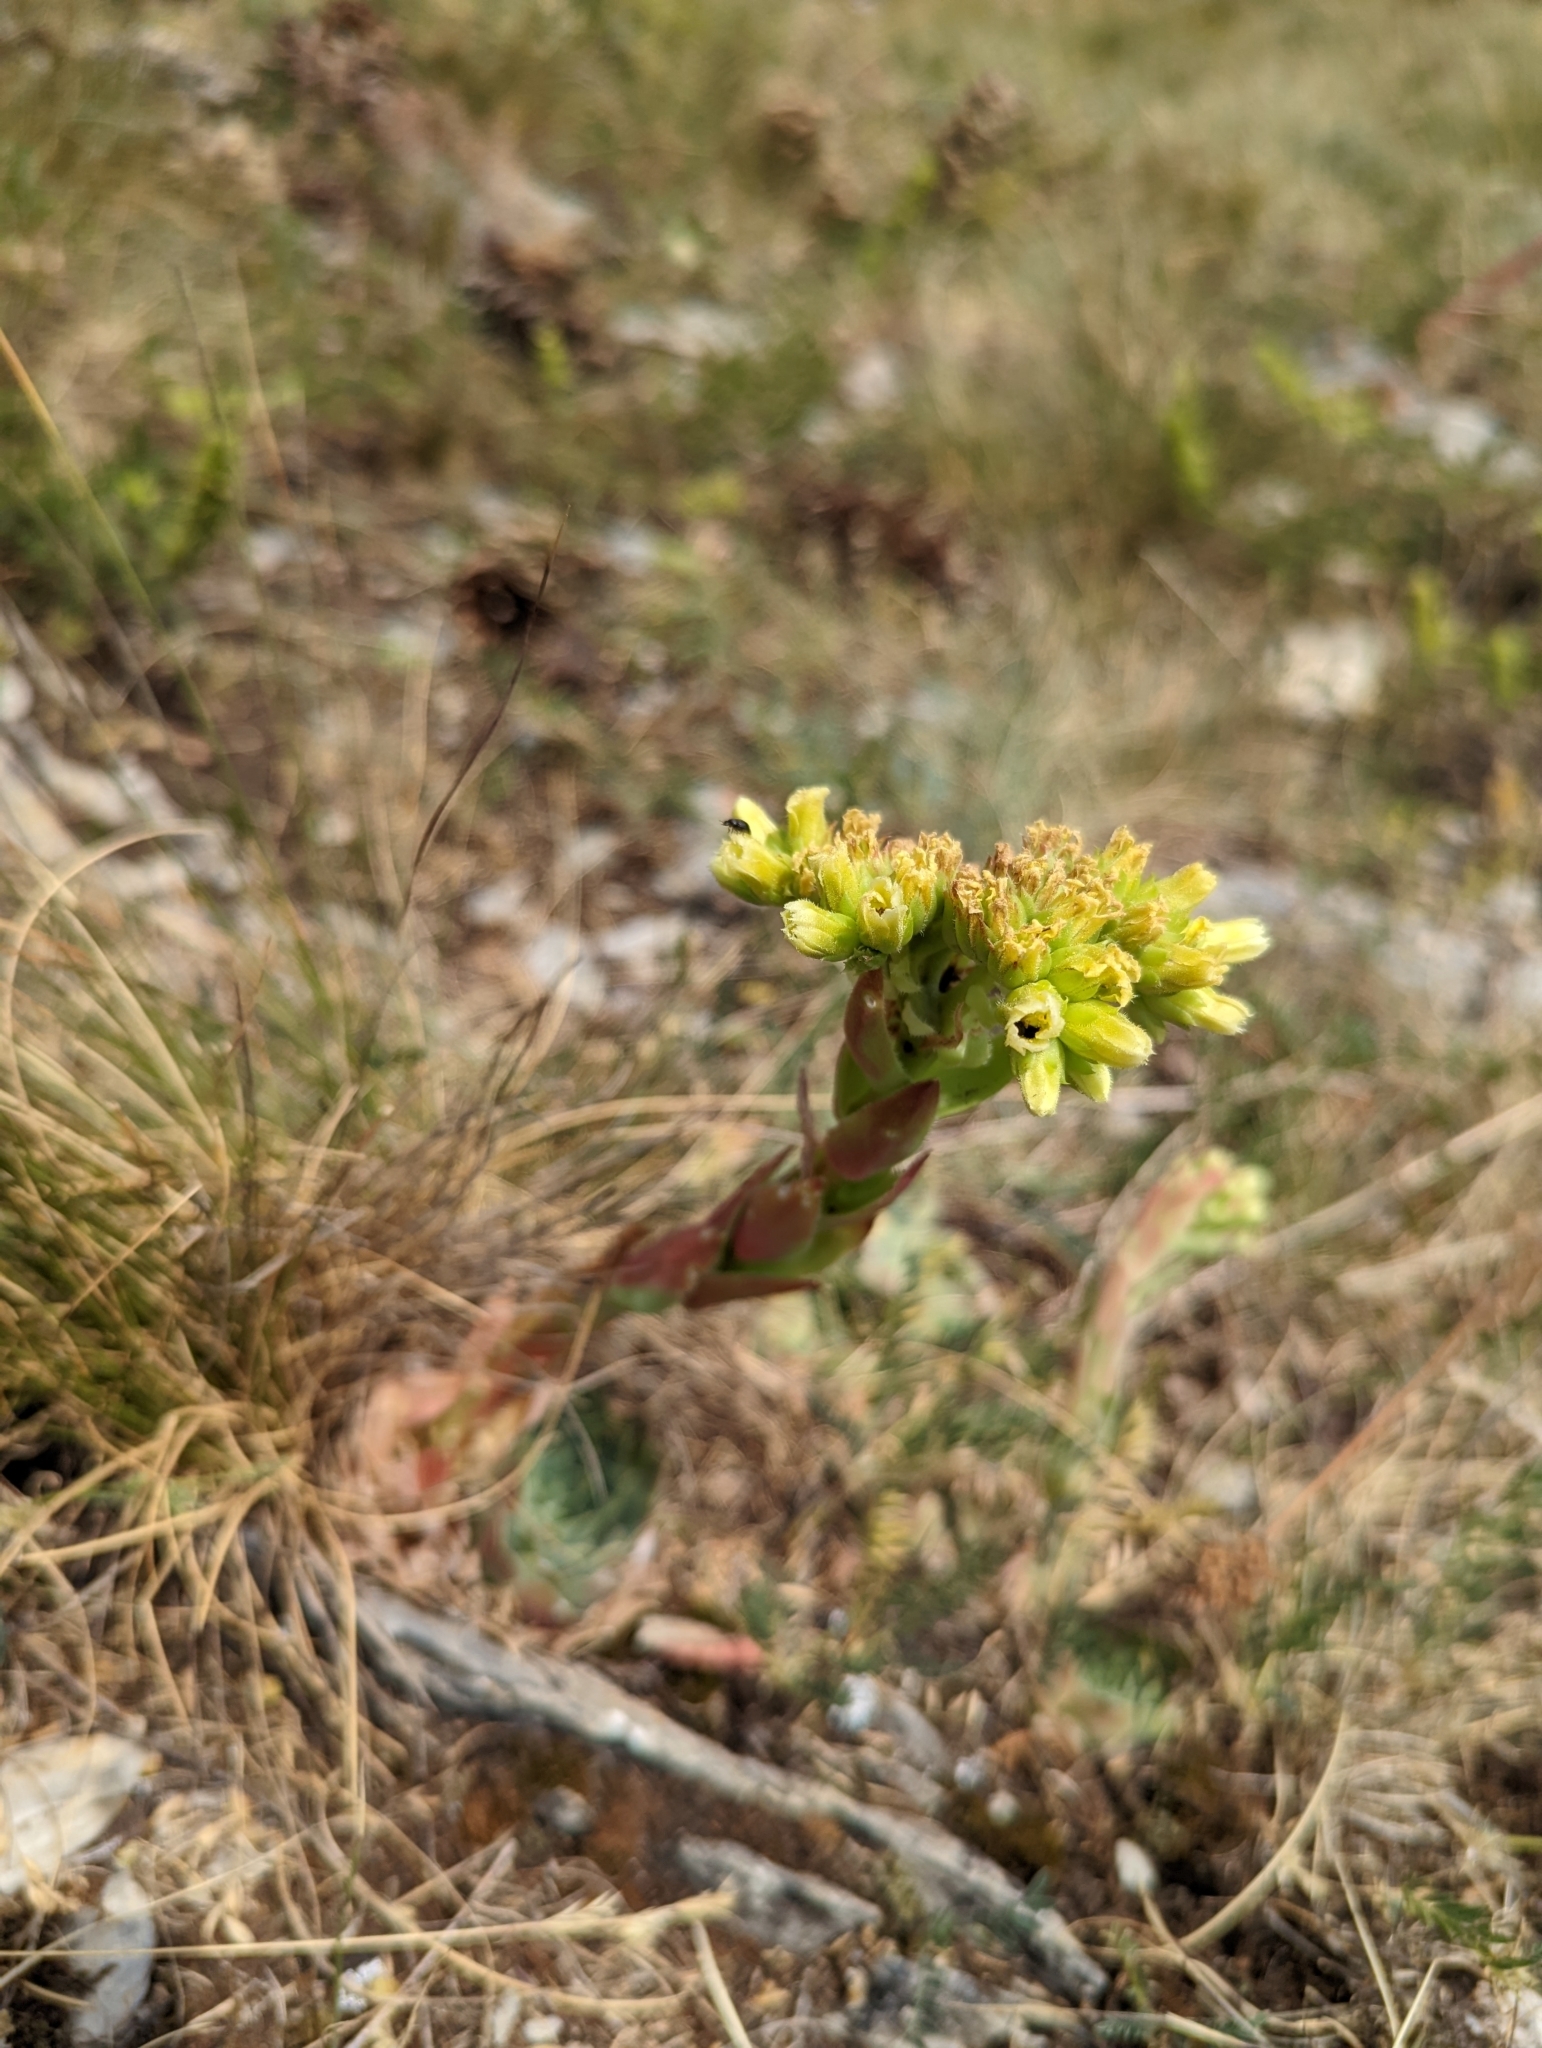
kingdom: Plantae
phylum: Tracheophyta
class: Magnoliopsida
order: Saxifragales
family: Crassulaceae
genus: Sempervivum
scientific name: Sempervivum heuffelii
